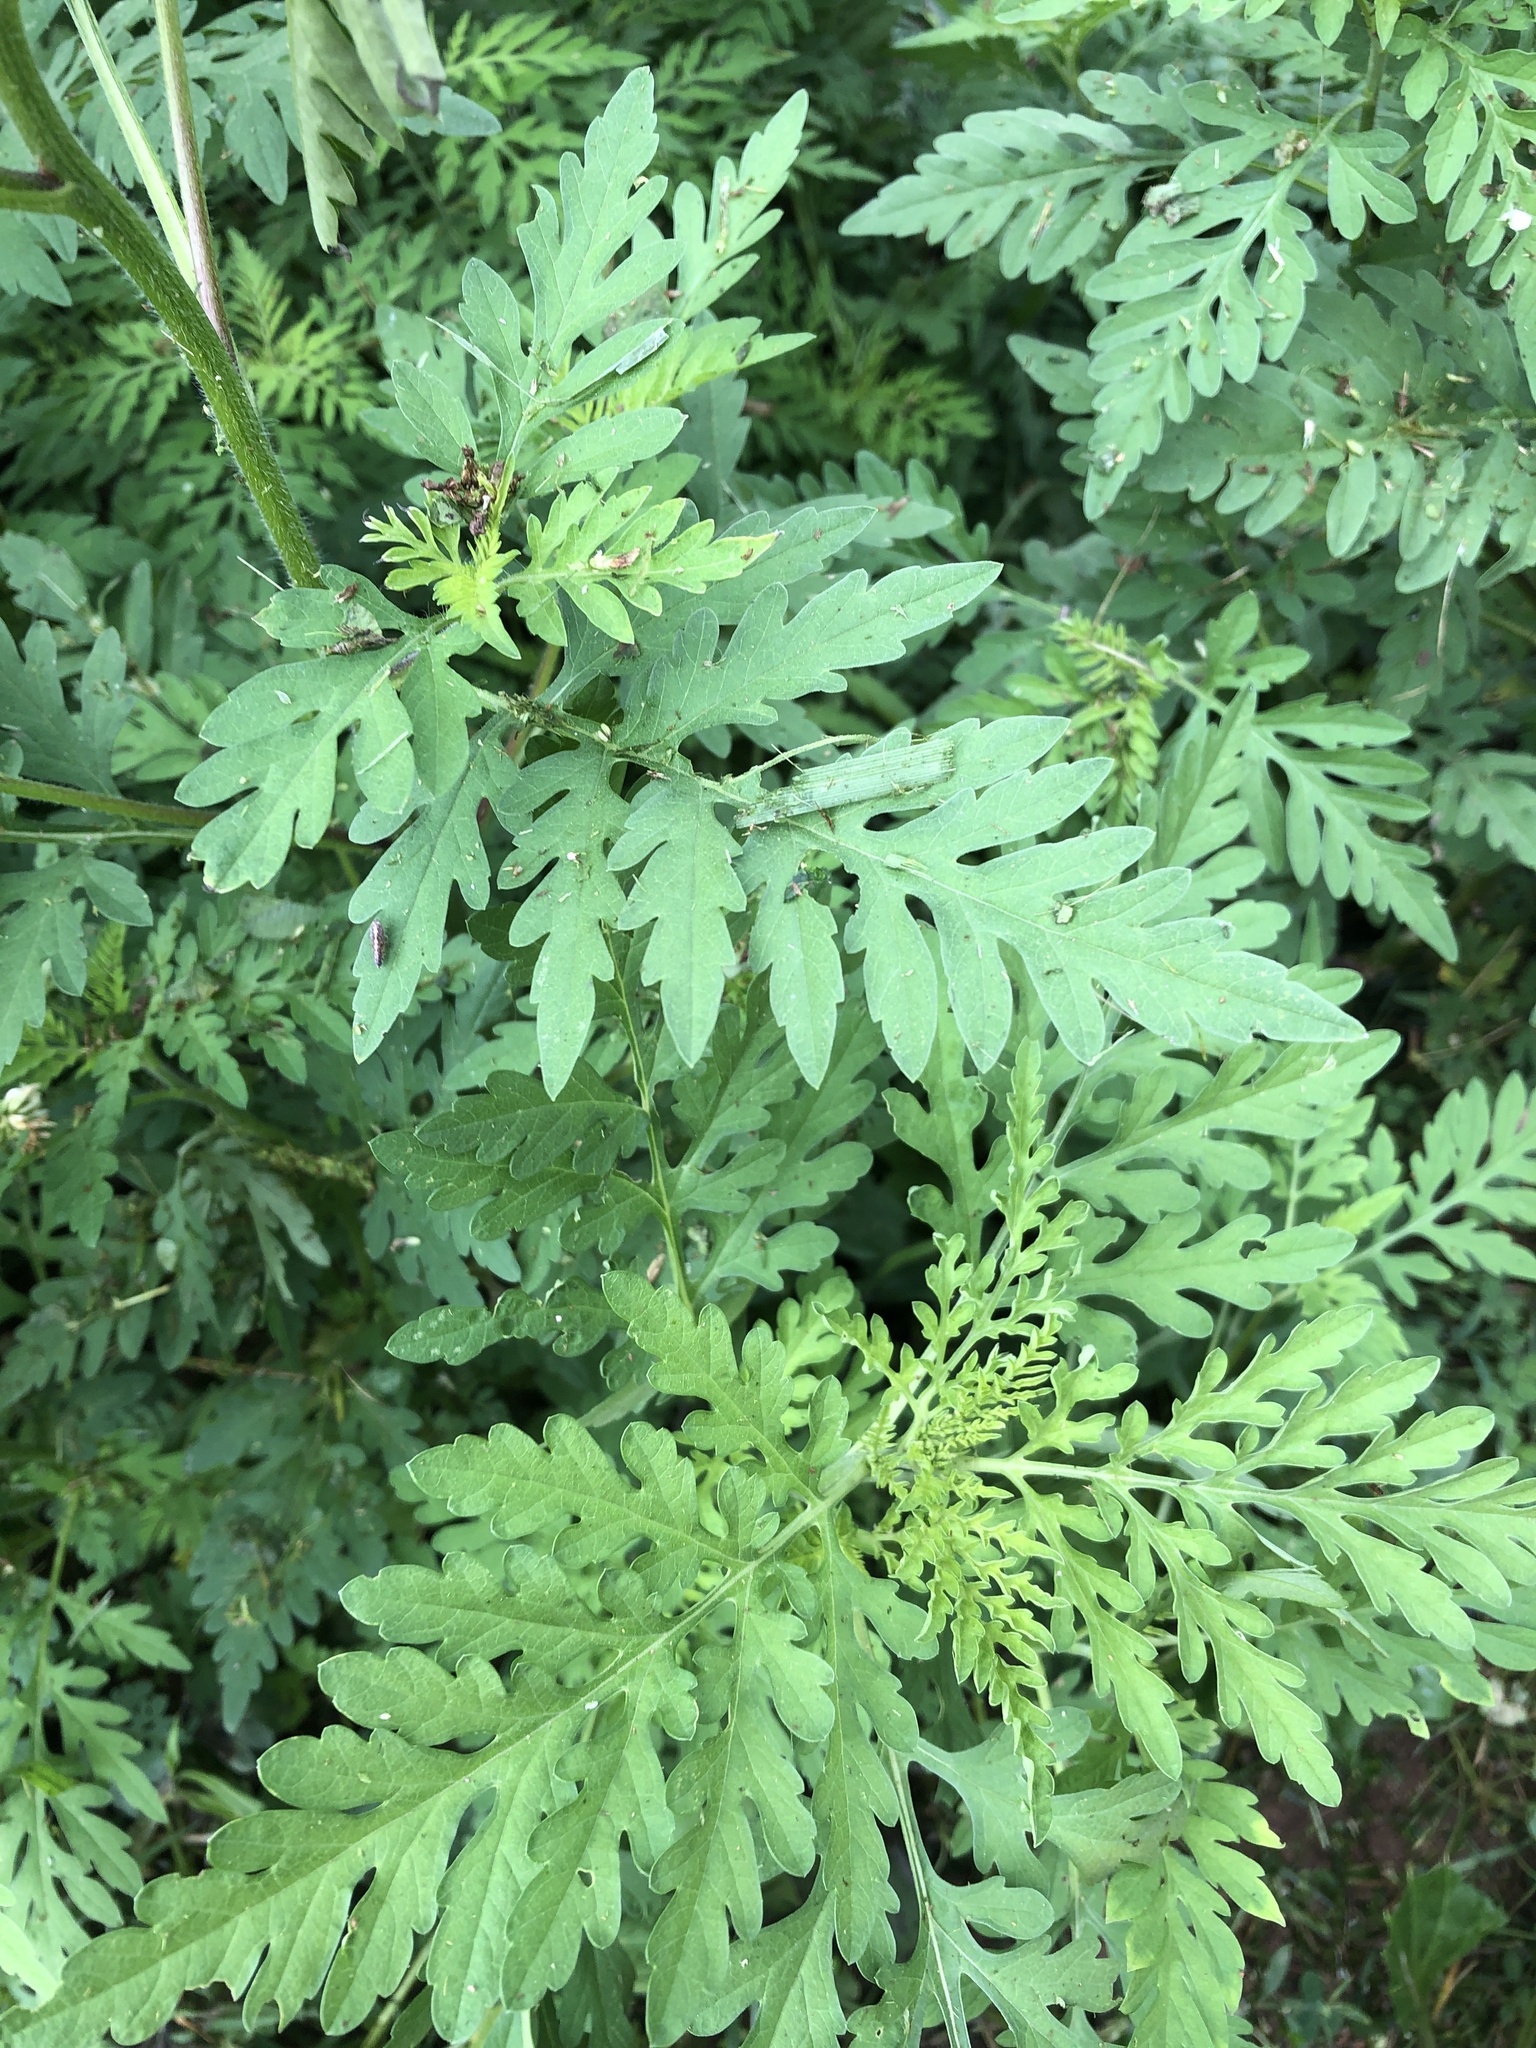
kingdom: Plantae
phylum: Tracheophyta
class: Magnoliopsida
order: Asterales
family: Asteraceae
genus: Ambrosia
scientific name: Ambrosia artemisiifolia
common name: Annual ragweed
